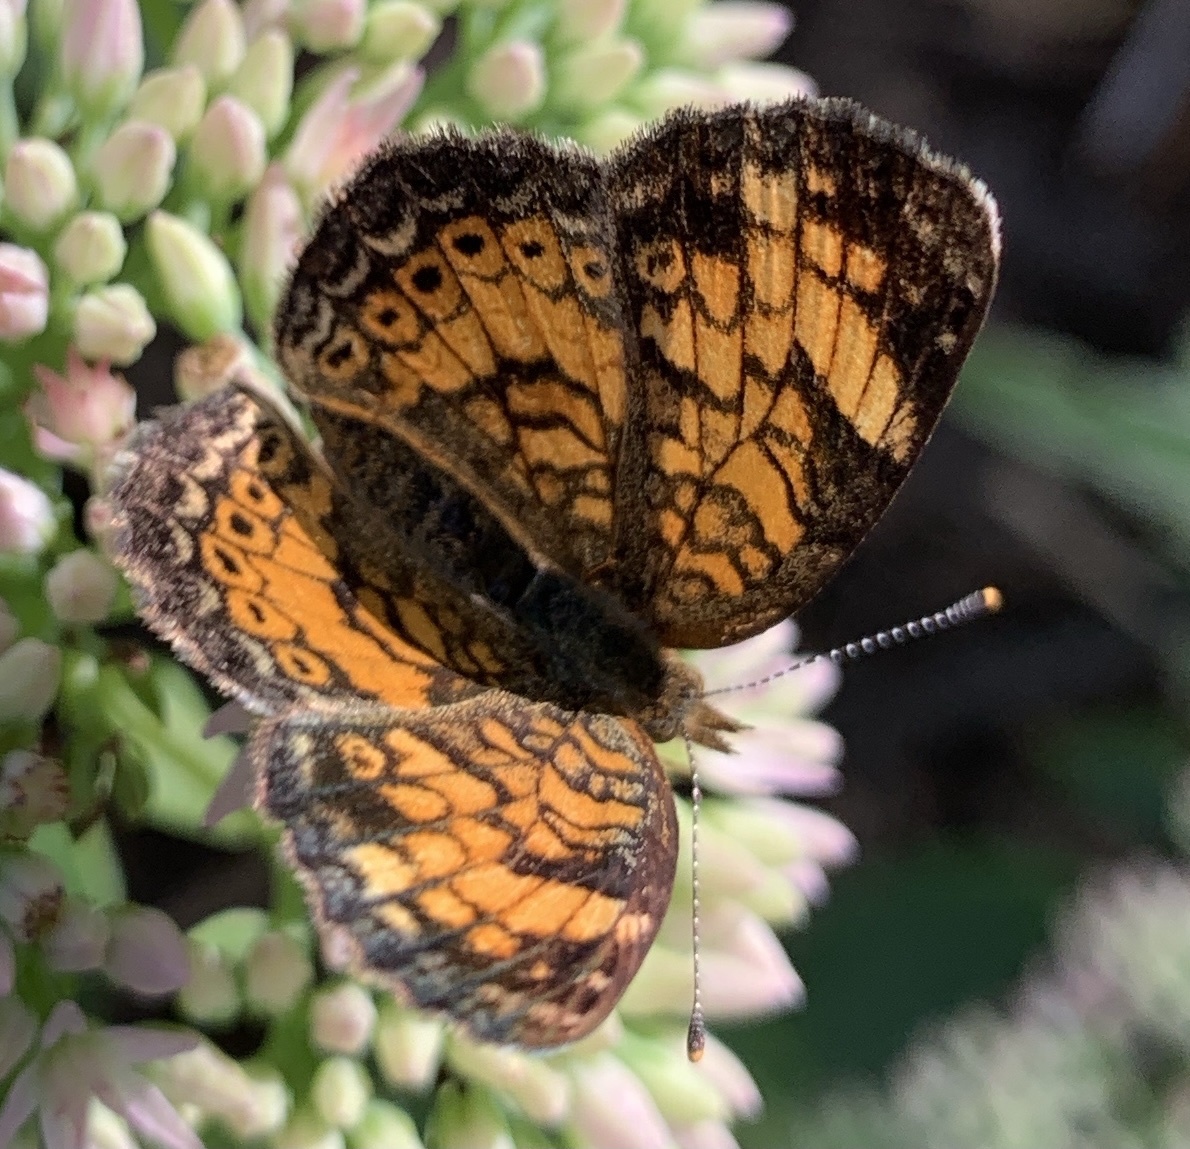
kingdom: Animalia
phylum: Arthropoda
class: Insecta
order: Lepidoptera
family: Nymphalidae
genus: Phyciodes
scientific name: Phyciodes tharos
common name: Pearl crescent
